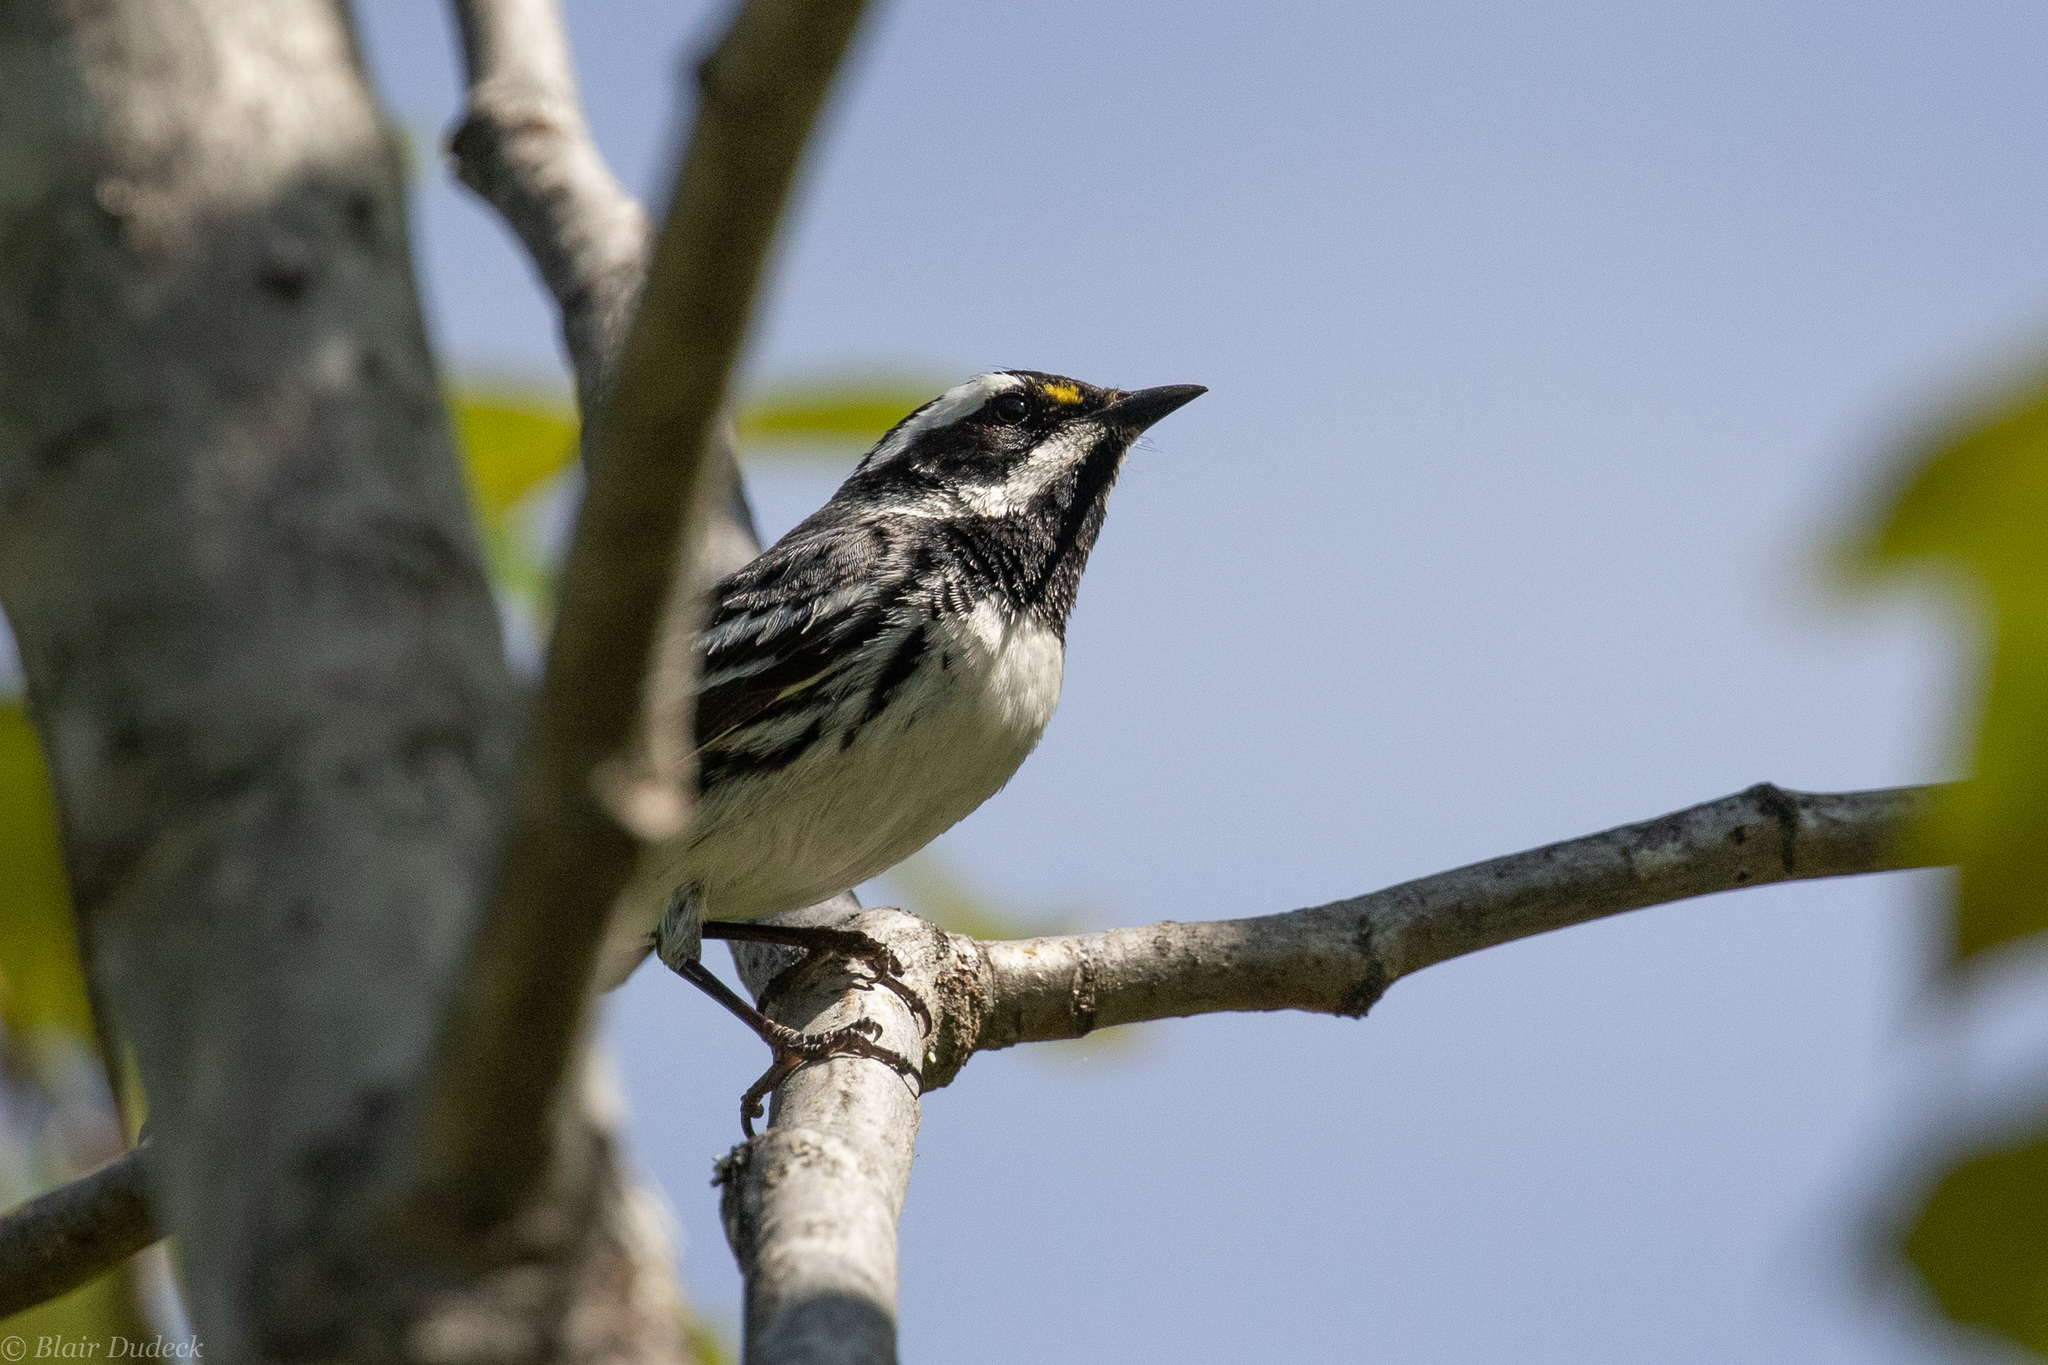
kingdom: Animalia
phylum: Chordata
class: Aves
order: Passeriformes
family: Parulidae
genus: Setophaga
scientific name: Setophaga nigrescens
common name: Black-throated gray warbler
